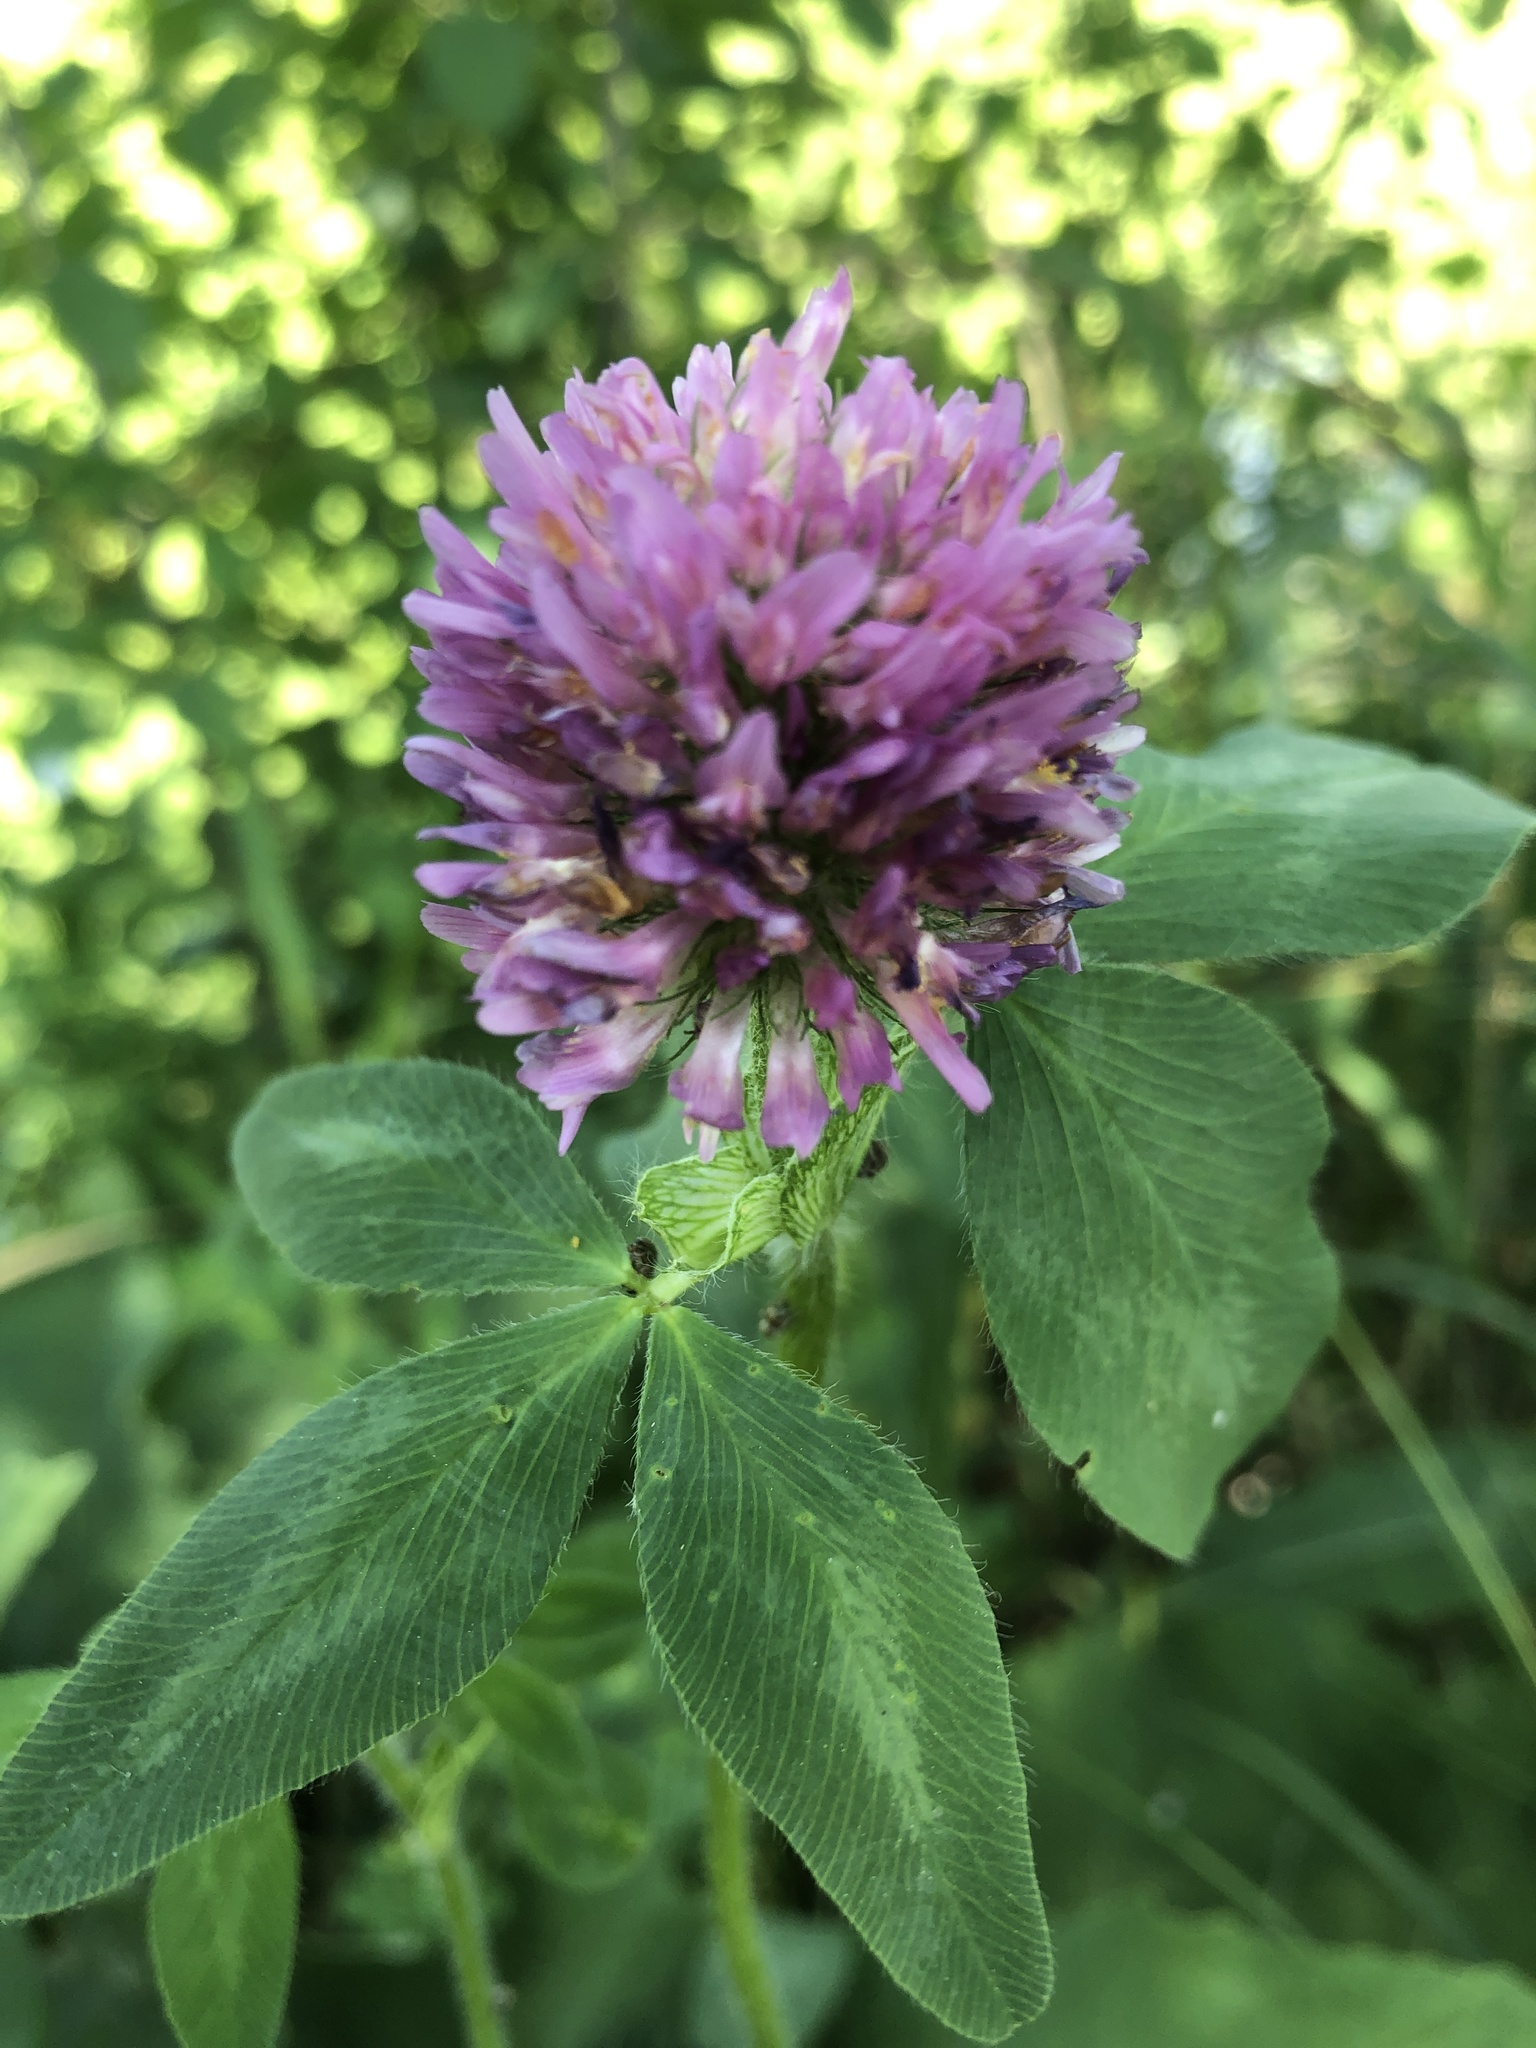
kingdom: Plantae
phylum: Tracheophyta
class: Magnoliopsida
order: Fabales
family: Fabaceae
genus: Trifolium
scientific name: Trifolium pratense
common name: Red clover
